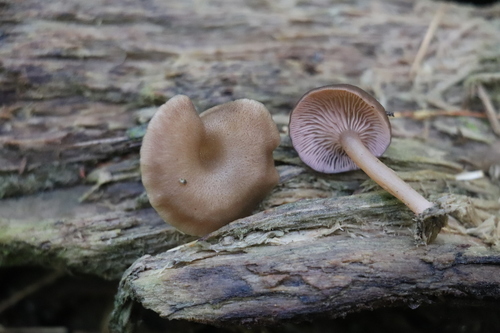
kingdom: Fungi
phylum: Basidiomycota
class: Agaricomycetes
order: Agaricales
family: Hygrophoraceae
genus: Arrhenia
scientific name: Arrhenia discorosea
